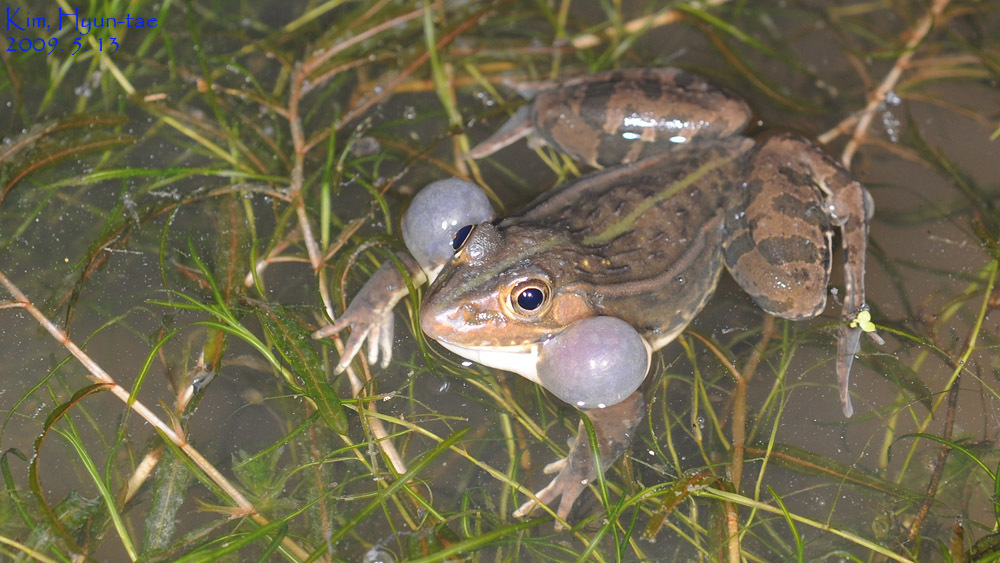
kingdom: Animalia
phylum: Chordata
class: Amphibia
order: Anura
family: Ranidae
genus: Pelophylax
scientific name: Pelophylax nigromaculatus
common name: Black-spotted pond frog
